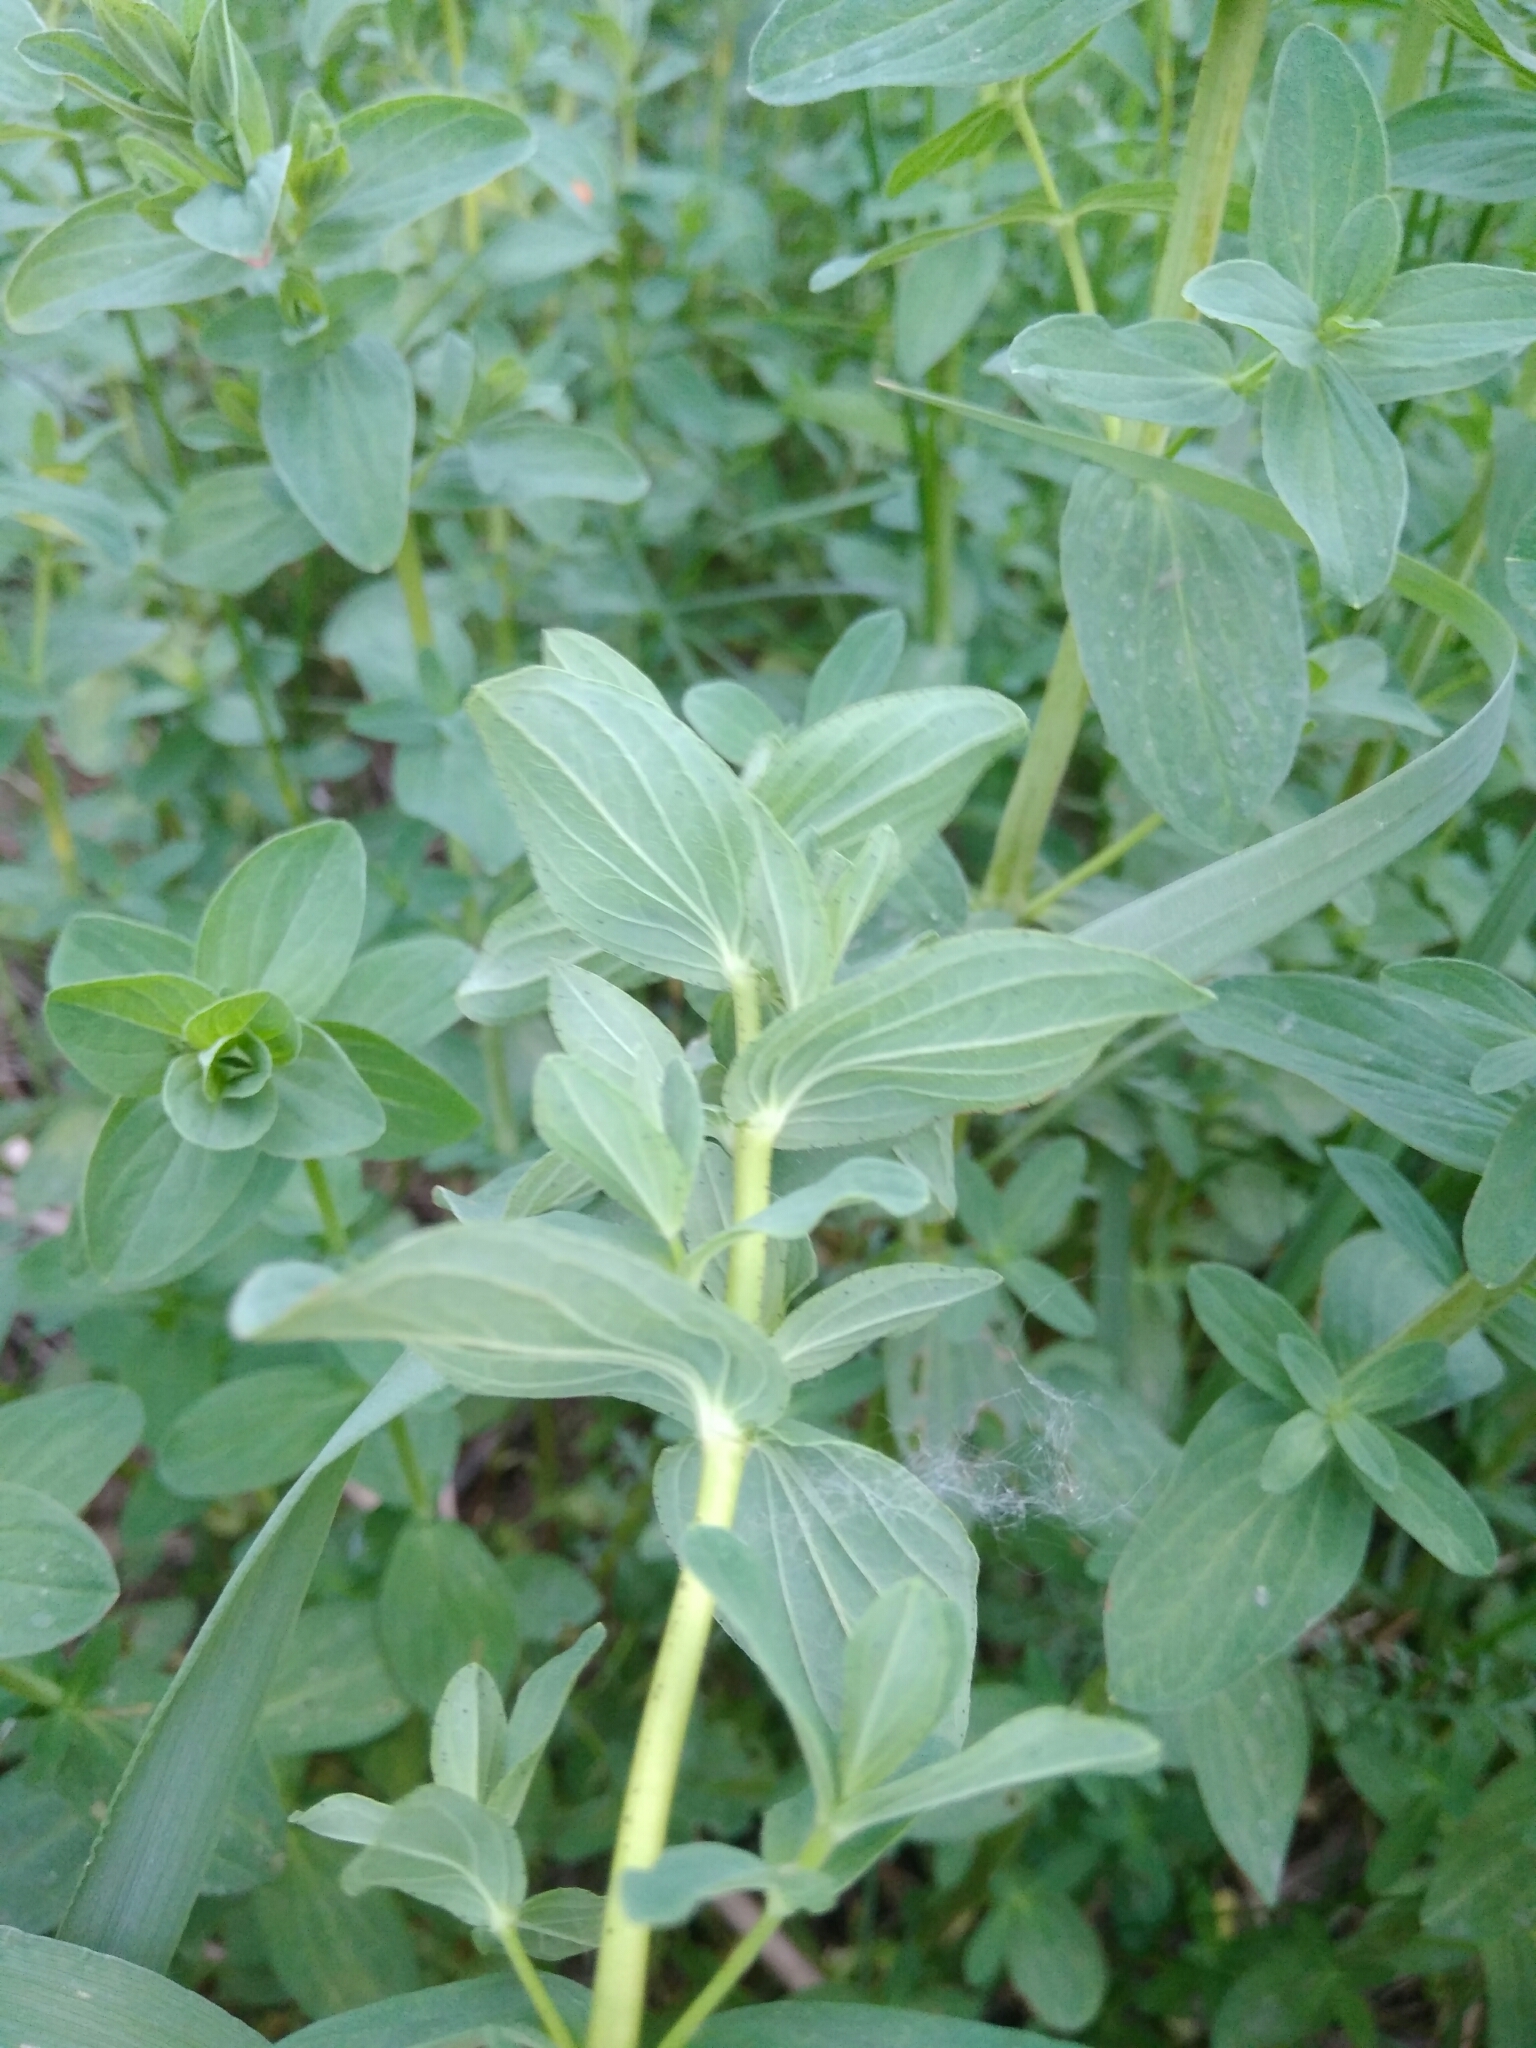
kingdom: Plantae
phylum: Tracheophyta
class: Magnoliopsida
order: Malpighiales
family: Hypericaceae
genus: Hypericum
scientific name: Hypericum perforatum
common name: Common st. johnswort
